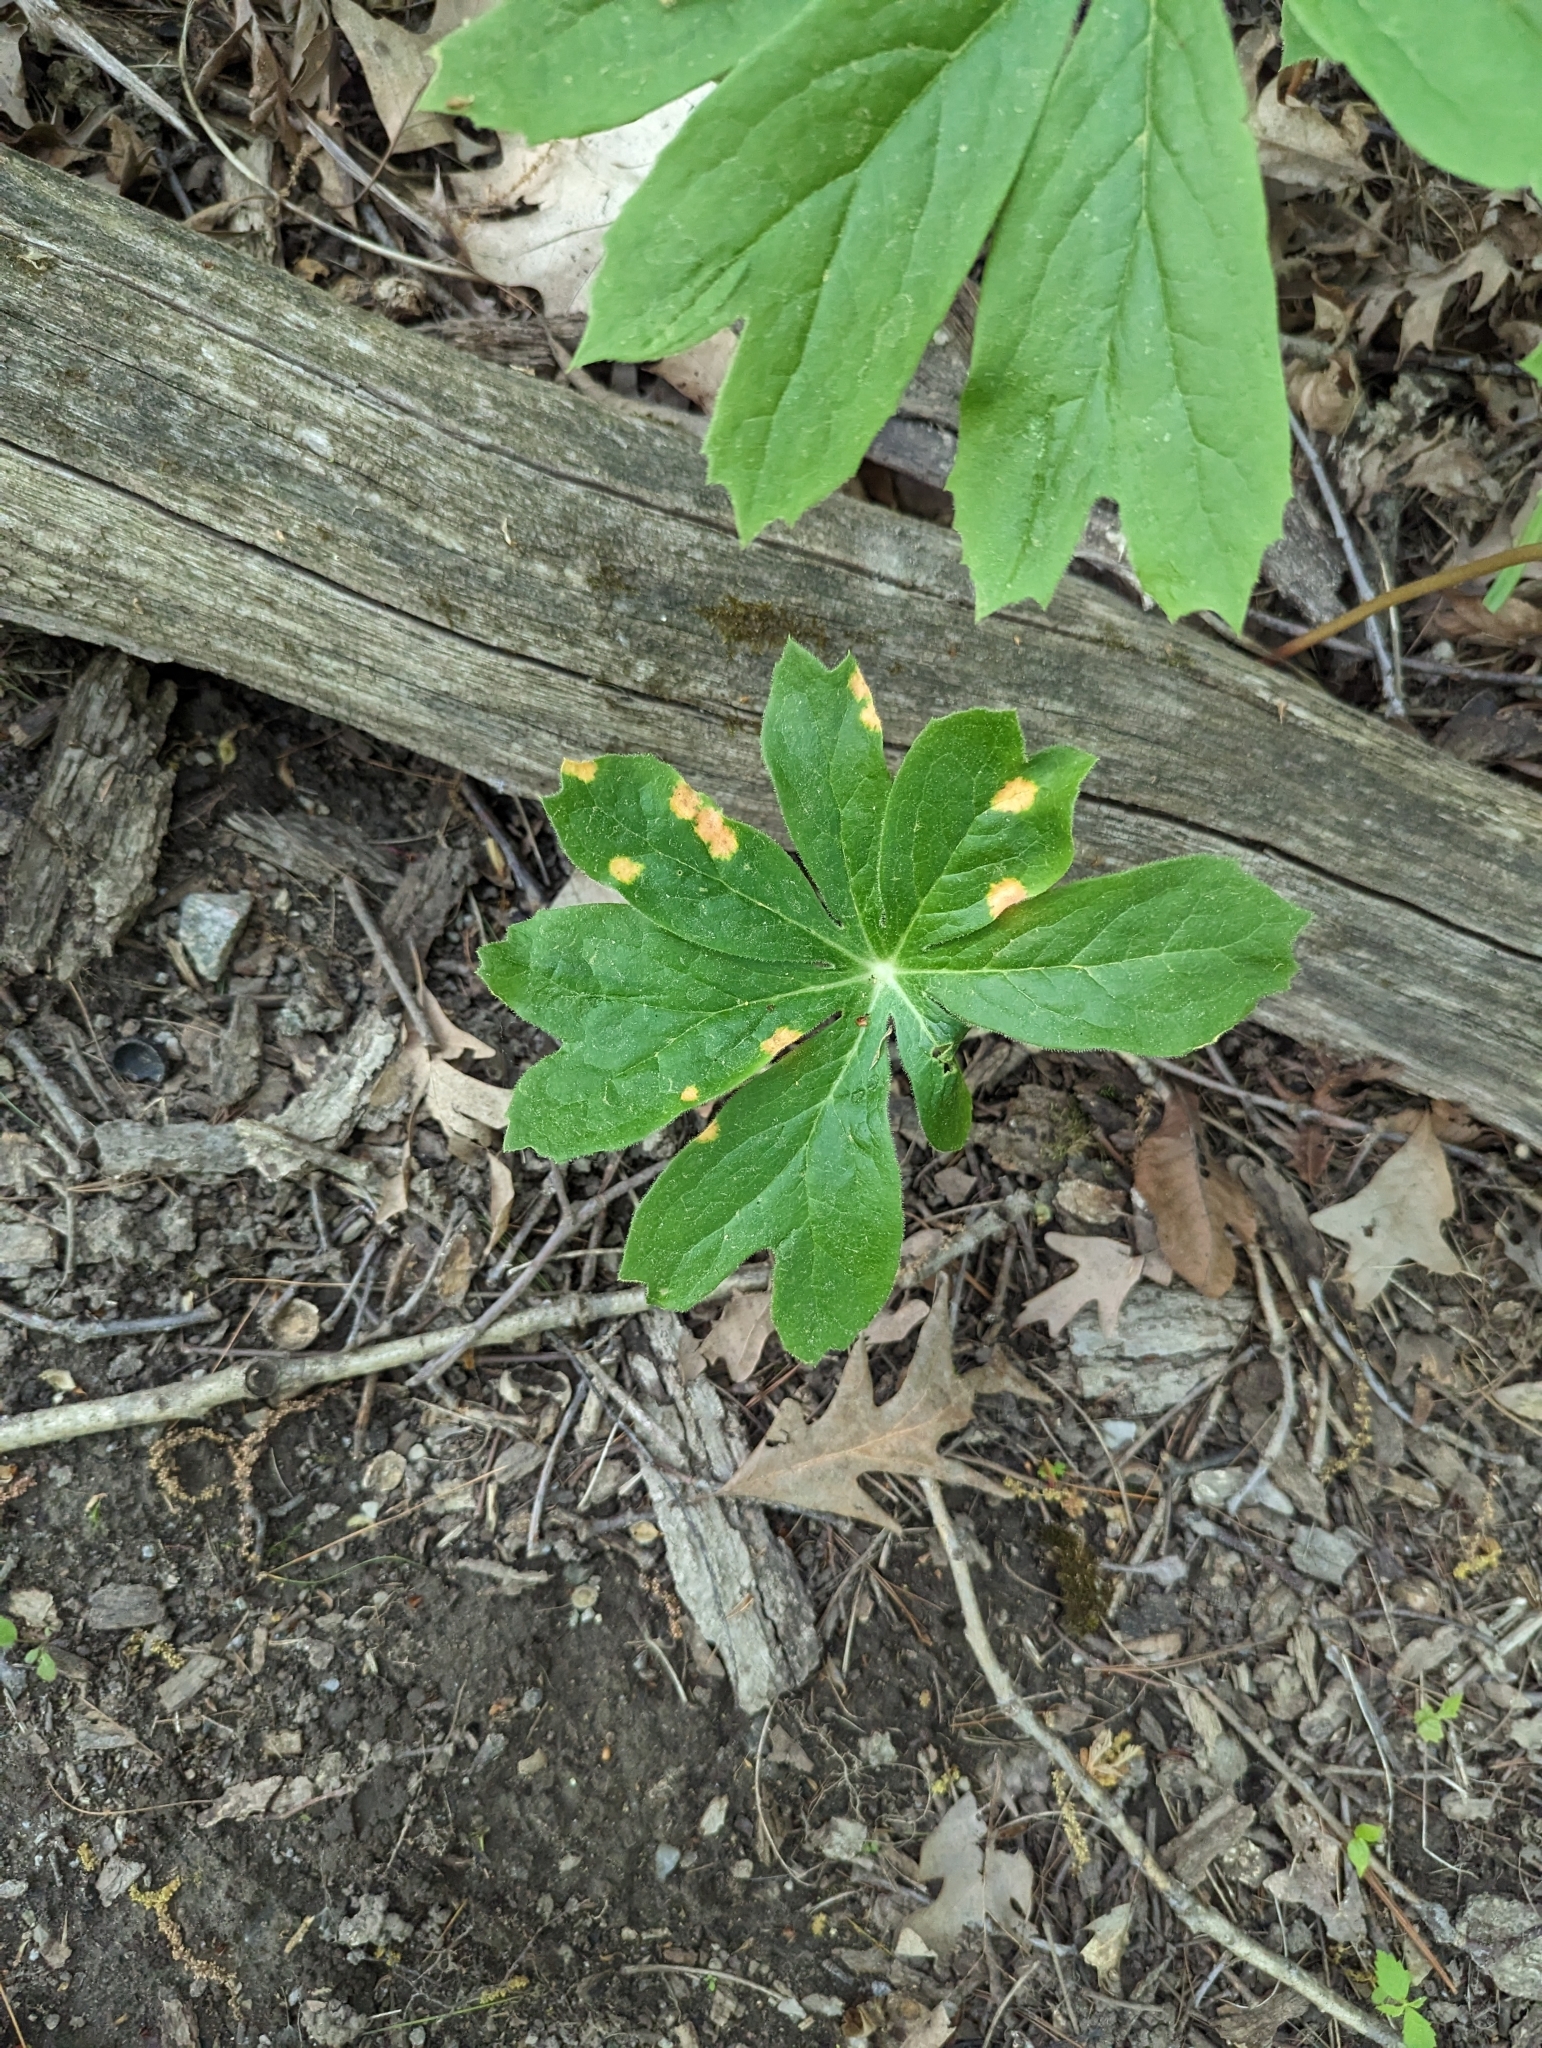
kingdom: Fungi
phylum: Basidiomycota
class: Pucciniomycetes
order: Pucciniales
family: Pucciniaceae
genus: Puccinia
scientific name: Puccinia podophylli
